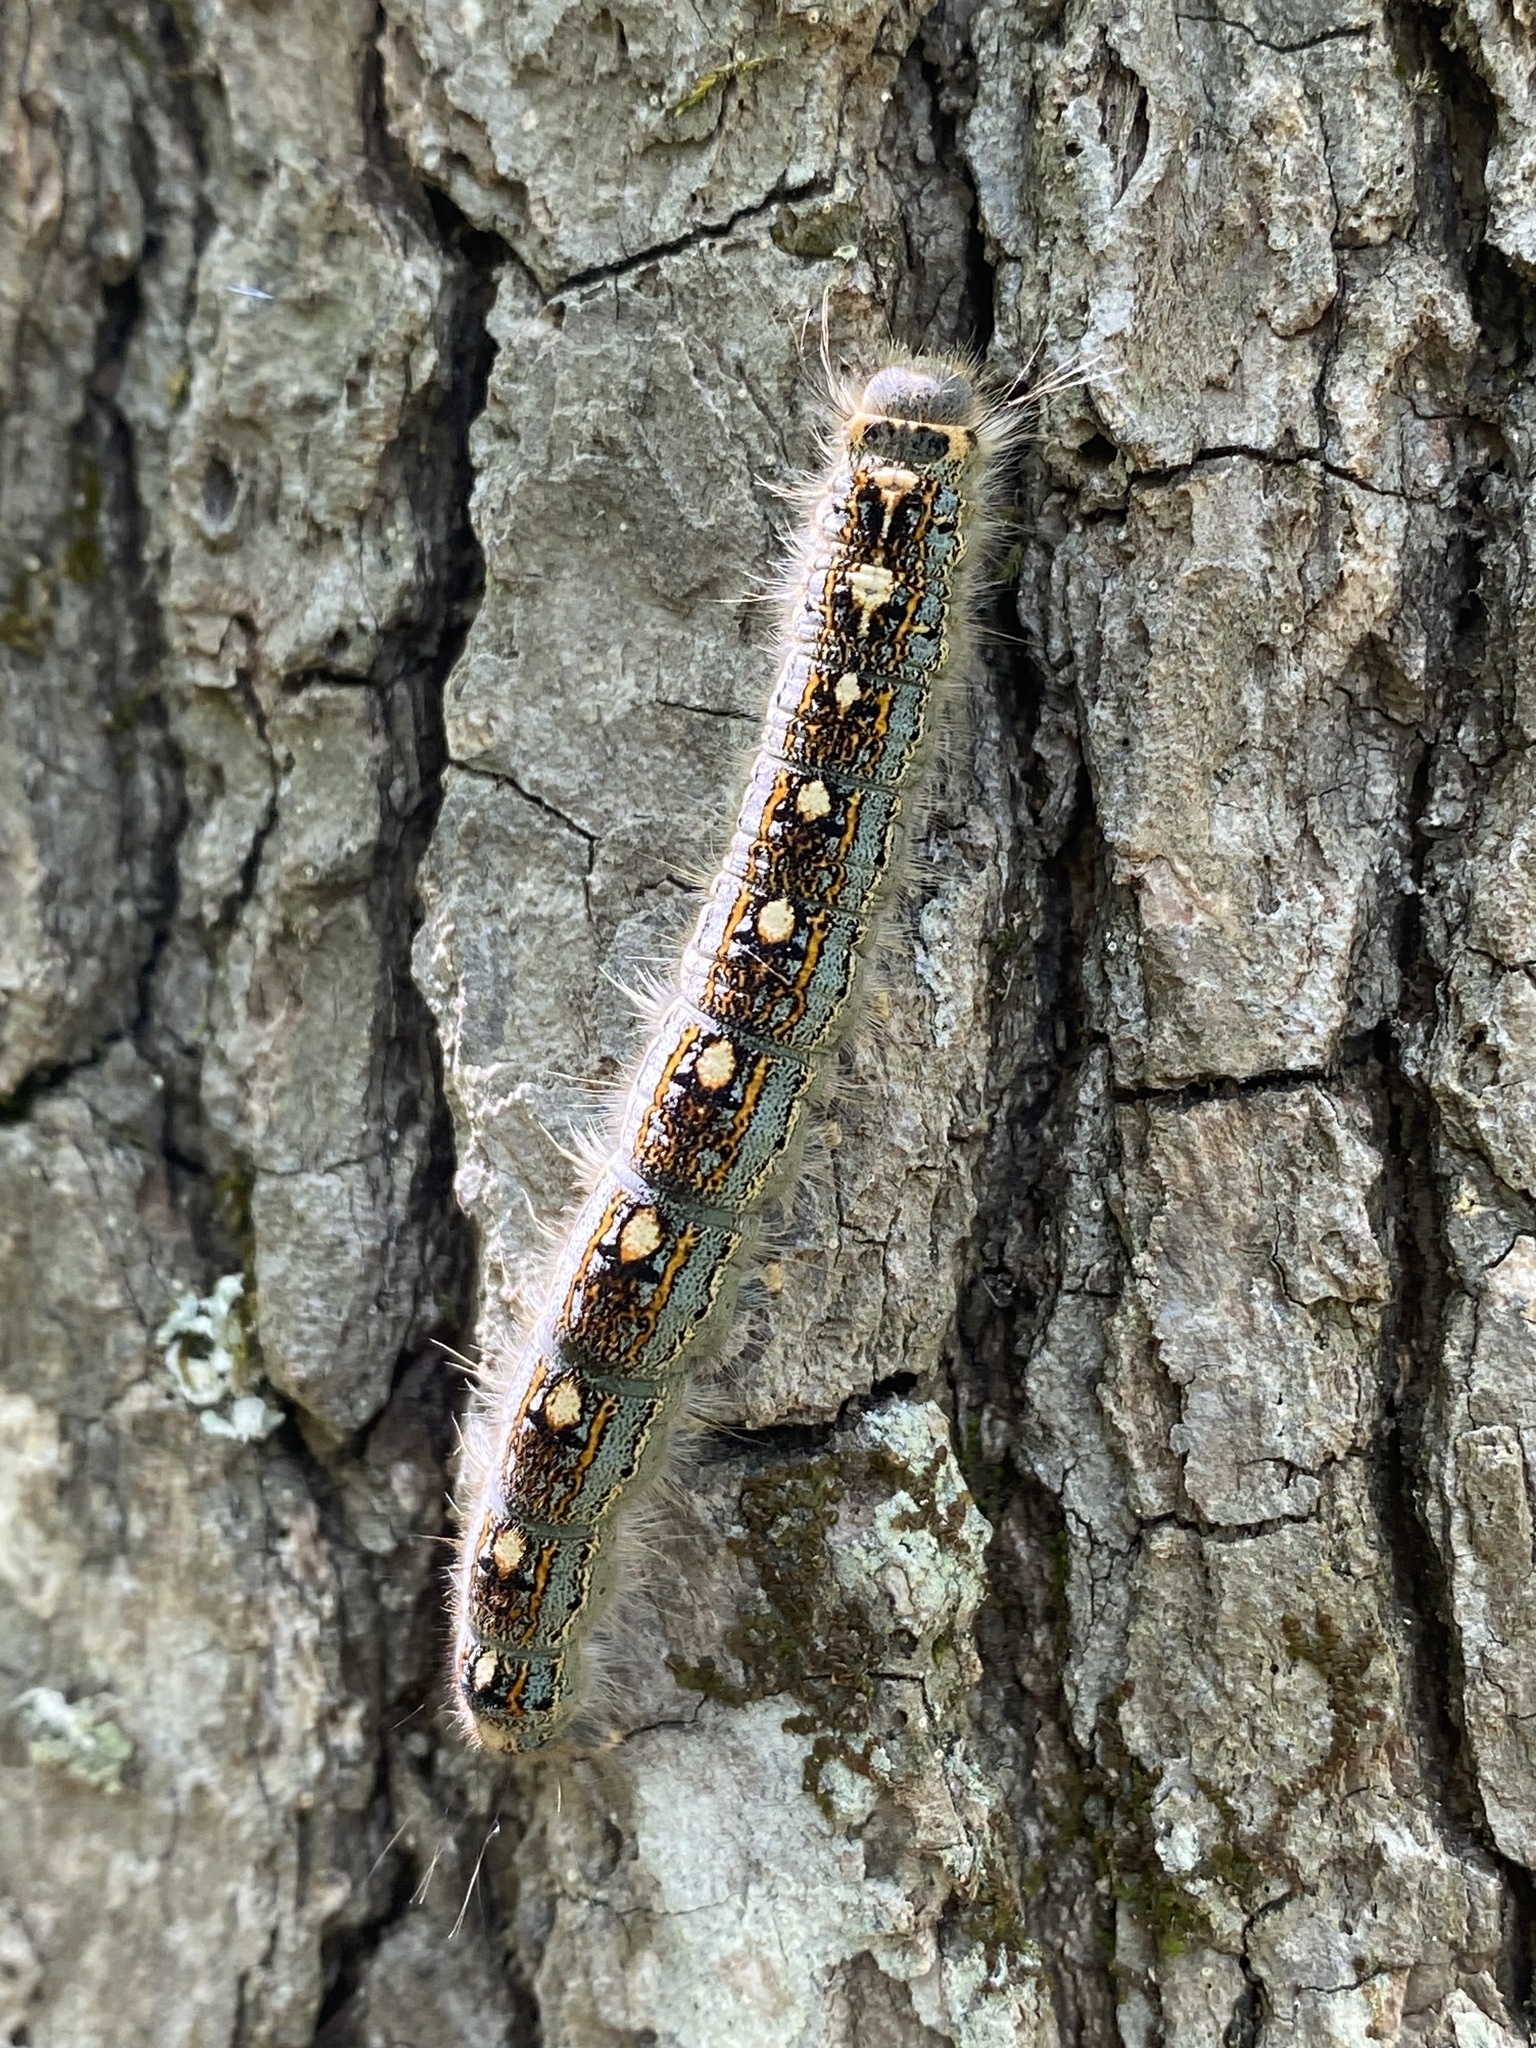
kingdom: Animalia
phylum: Arthropoda
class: Insecta
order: Lepidoptera
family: Lasiocampidae
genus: Malacosoma
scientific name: Malacosoma disstria
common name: Forest tent caterpillar
